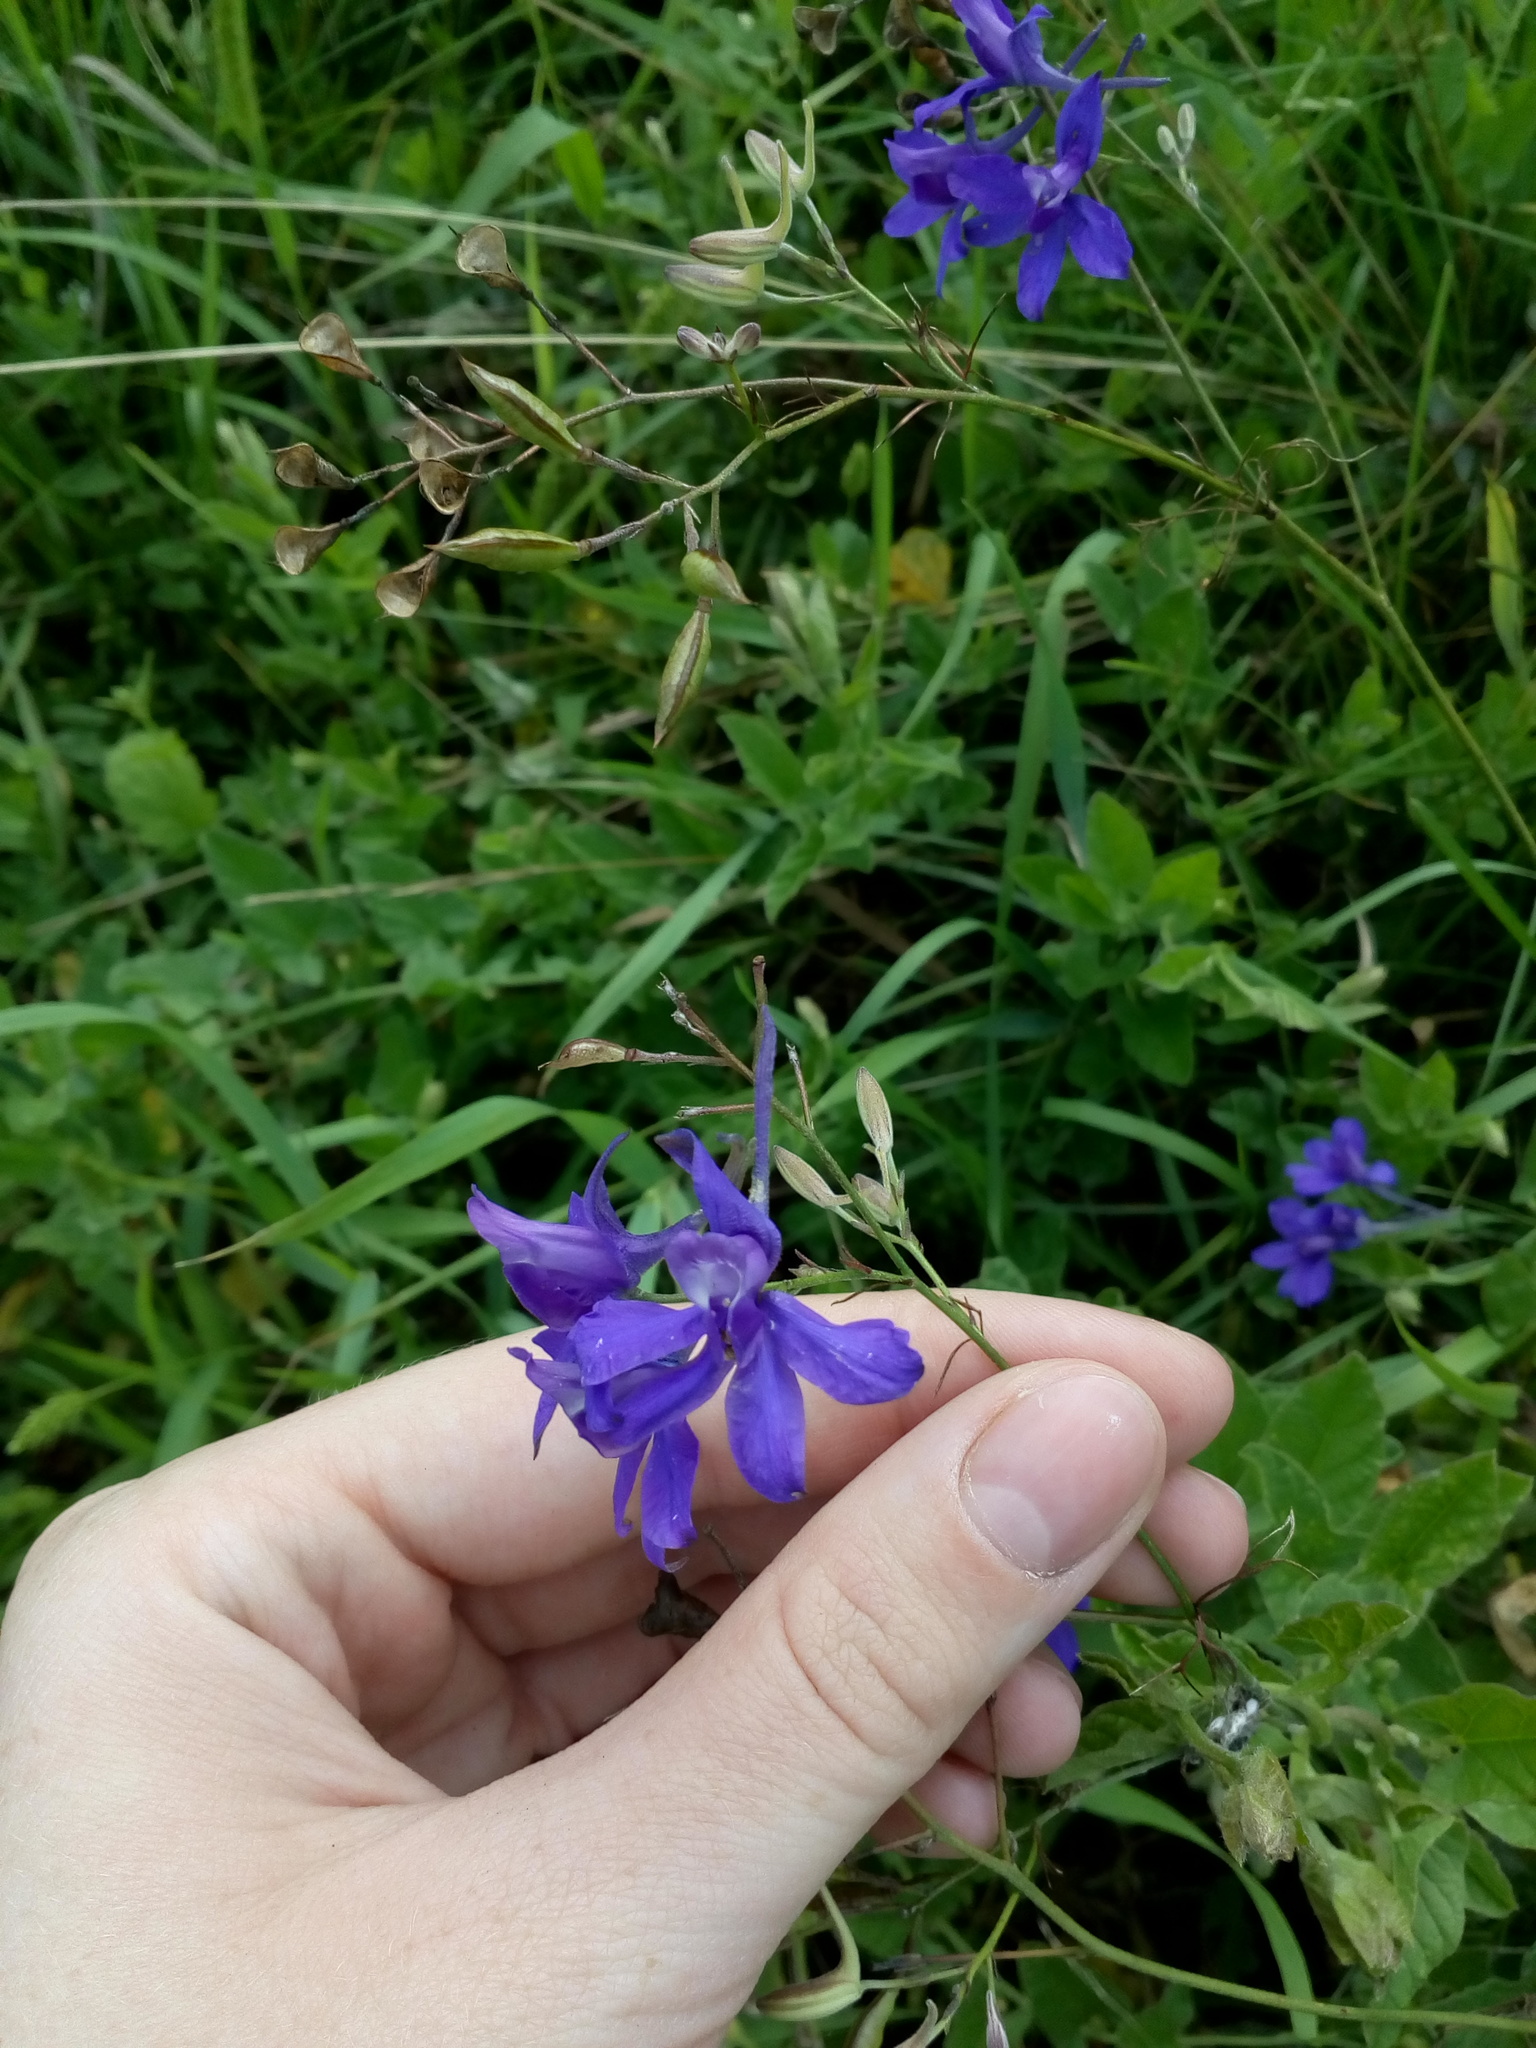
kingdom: Plantae
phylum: Tracheophyta
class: Magnoliopsida
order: Ranunculales
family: Ranunculaceae
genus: Delphinium
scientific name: Delphinium consolida
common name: Branching larkspur
